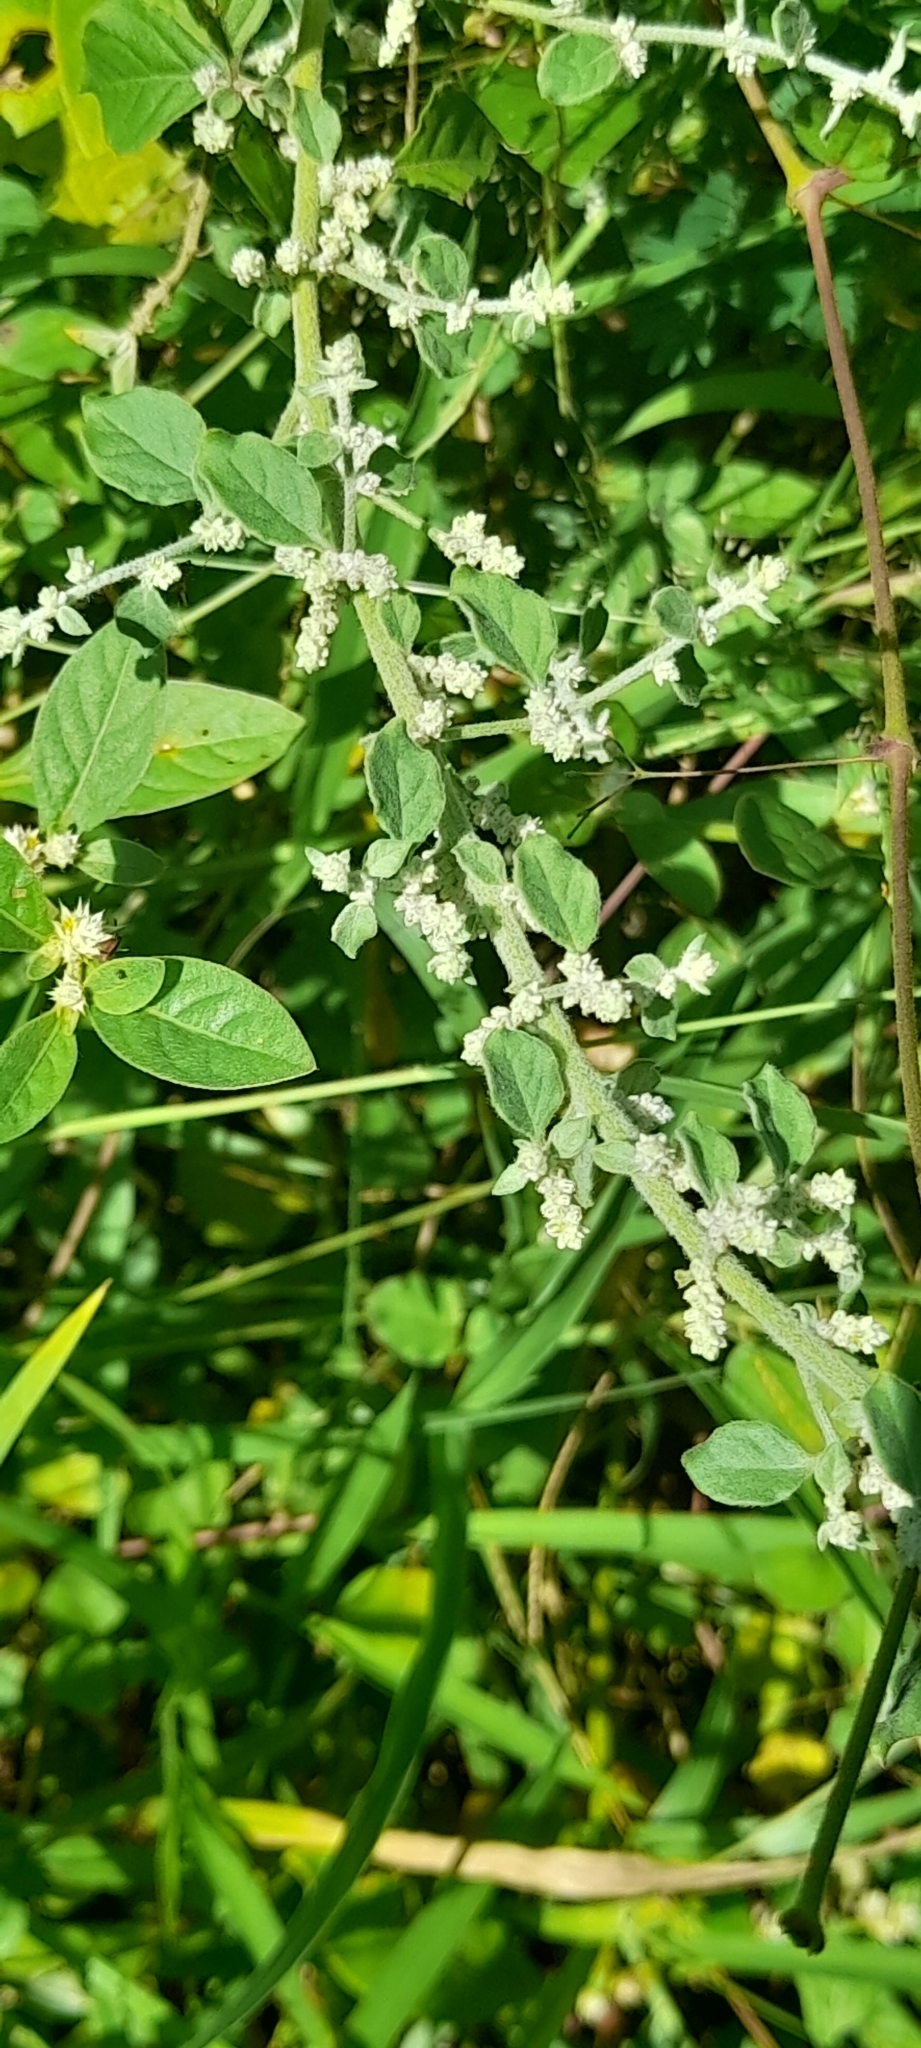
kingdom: Plantae
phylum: Tracheophyta
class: Magnoliopsida
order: Caryophyllales
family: Amaranthaceae
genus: Ouret
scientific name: Ouret lanata
